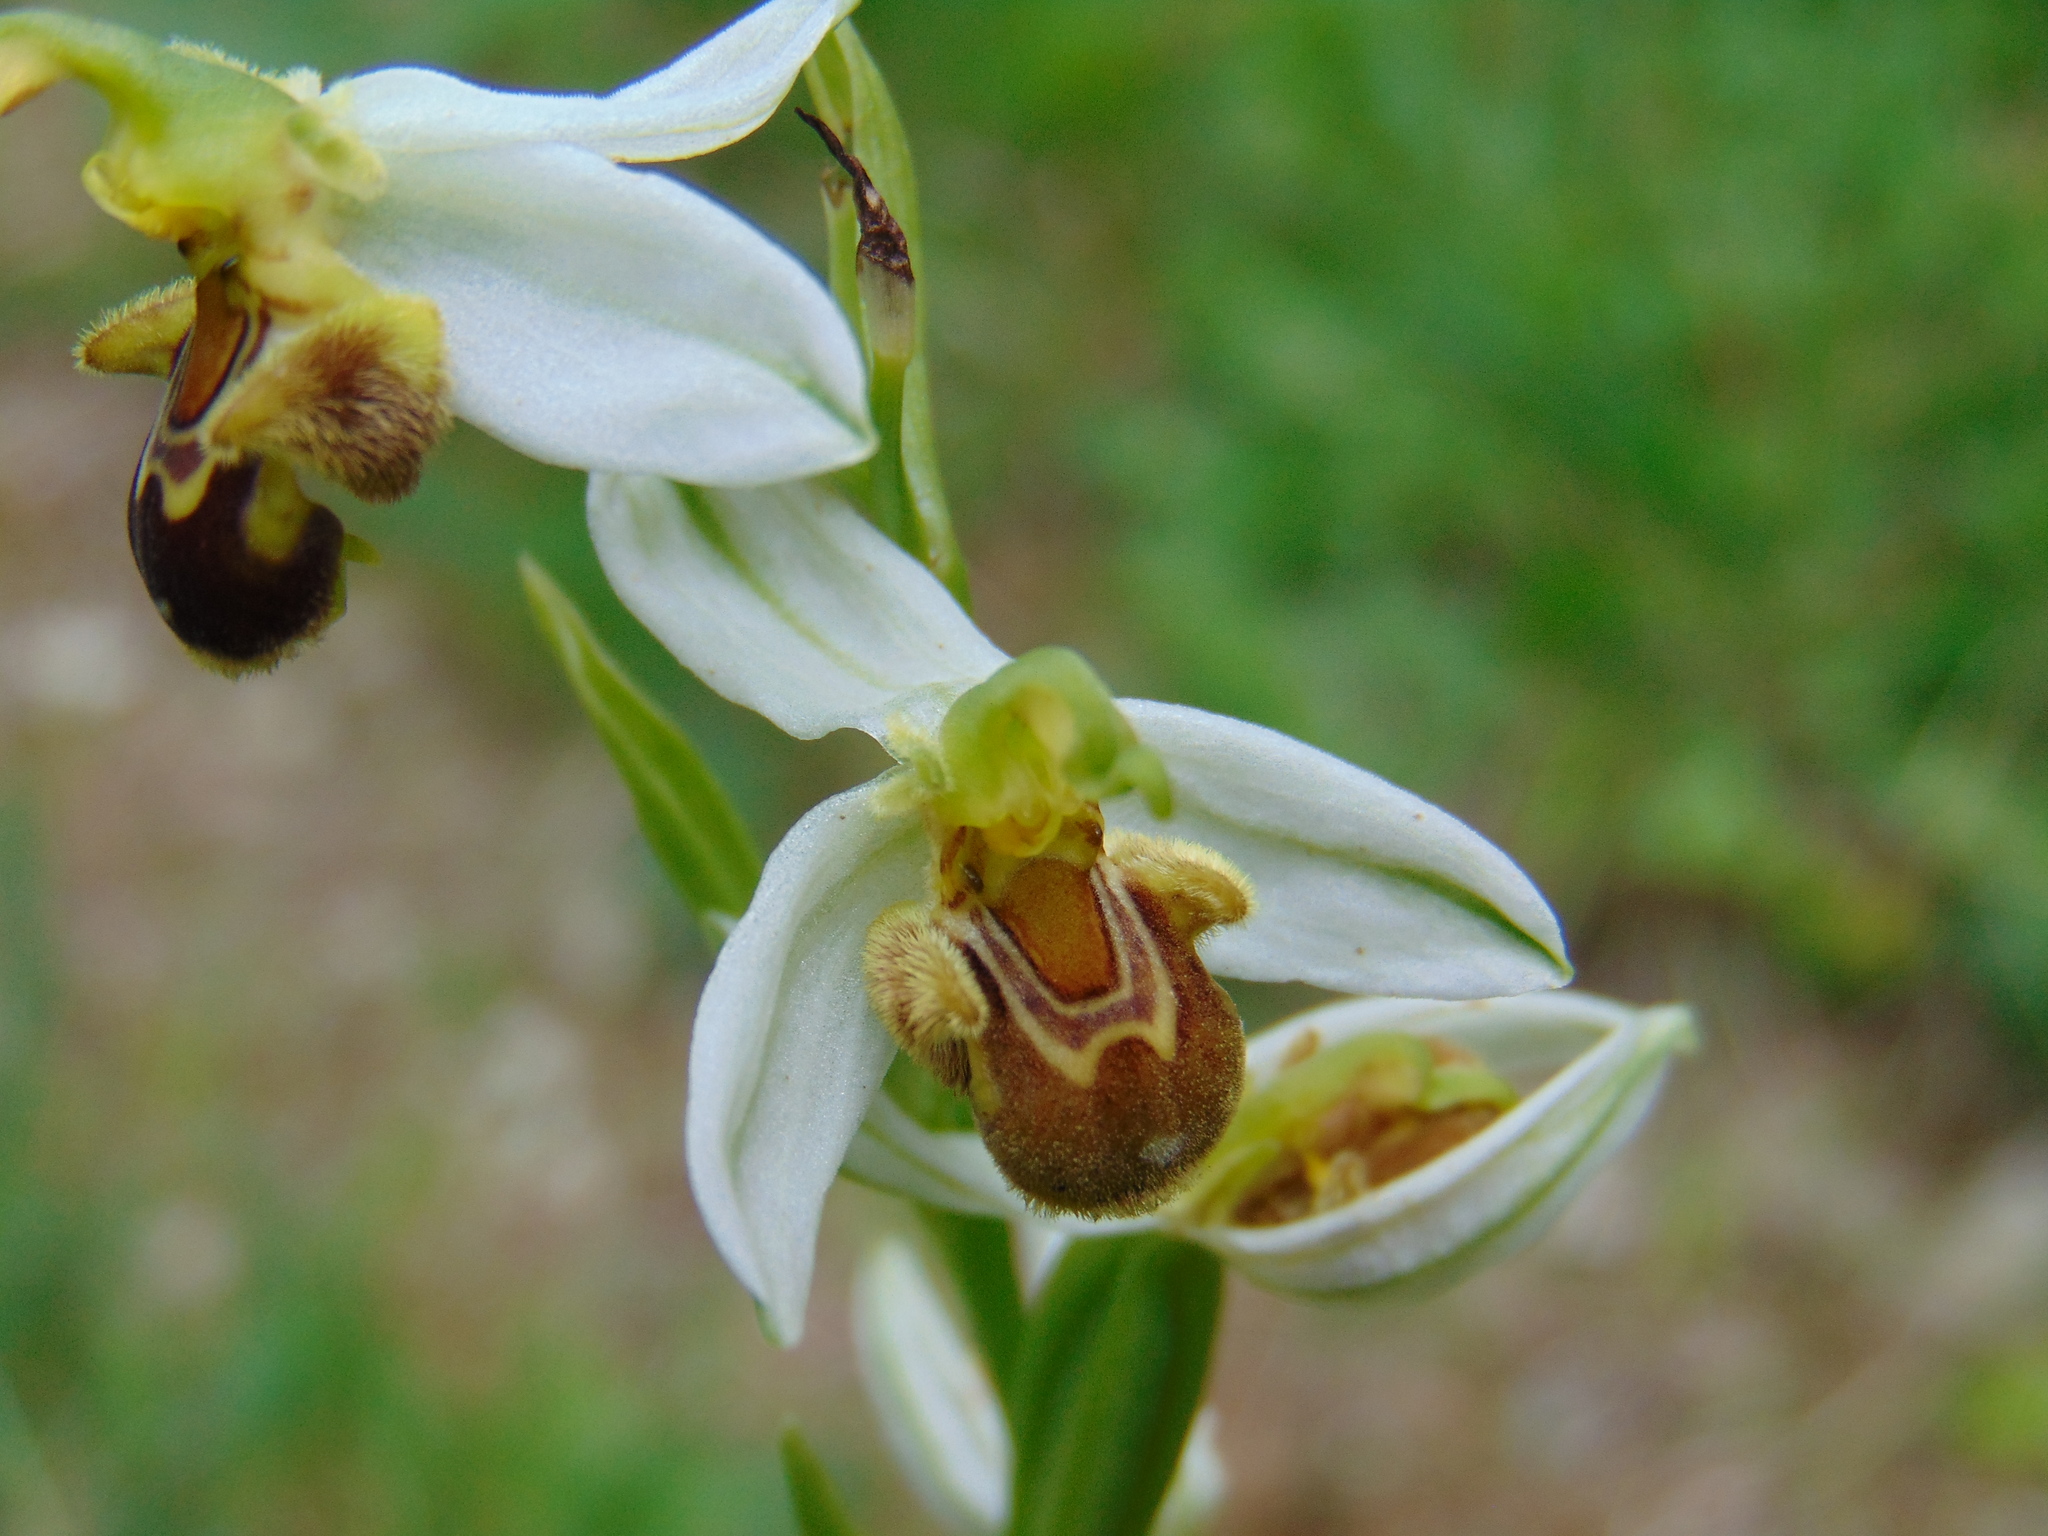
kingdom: Plantae
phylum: Tracheophyta
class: Liliopsida
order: Asparagales
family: Orchidaceae
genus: Ophrys
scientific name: Ophrys apifera
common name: Bee orchid
